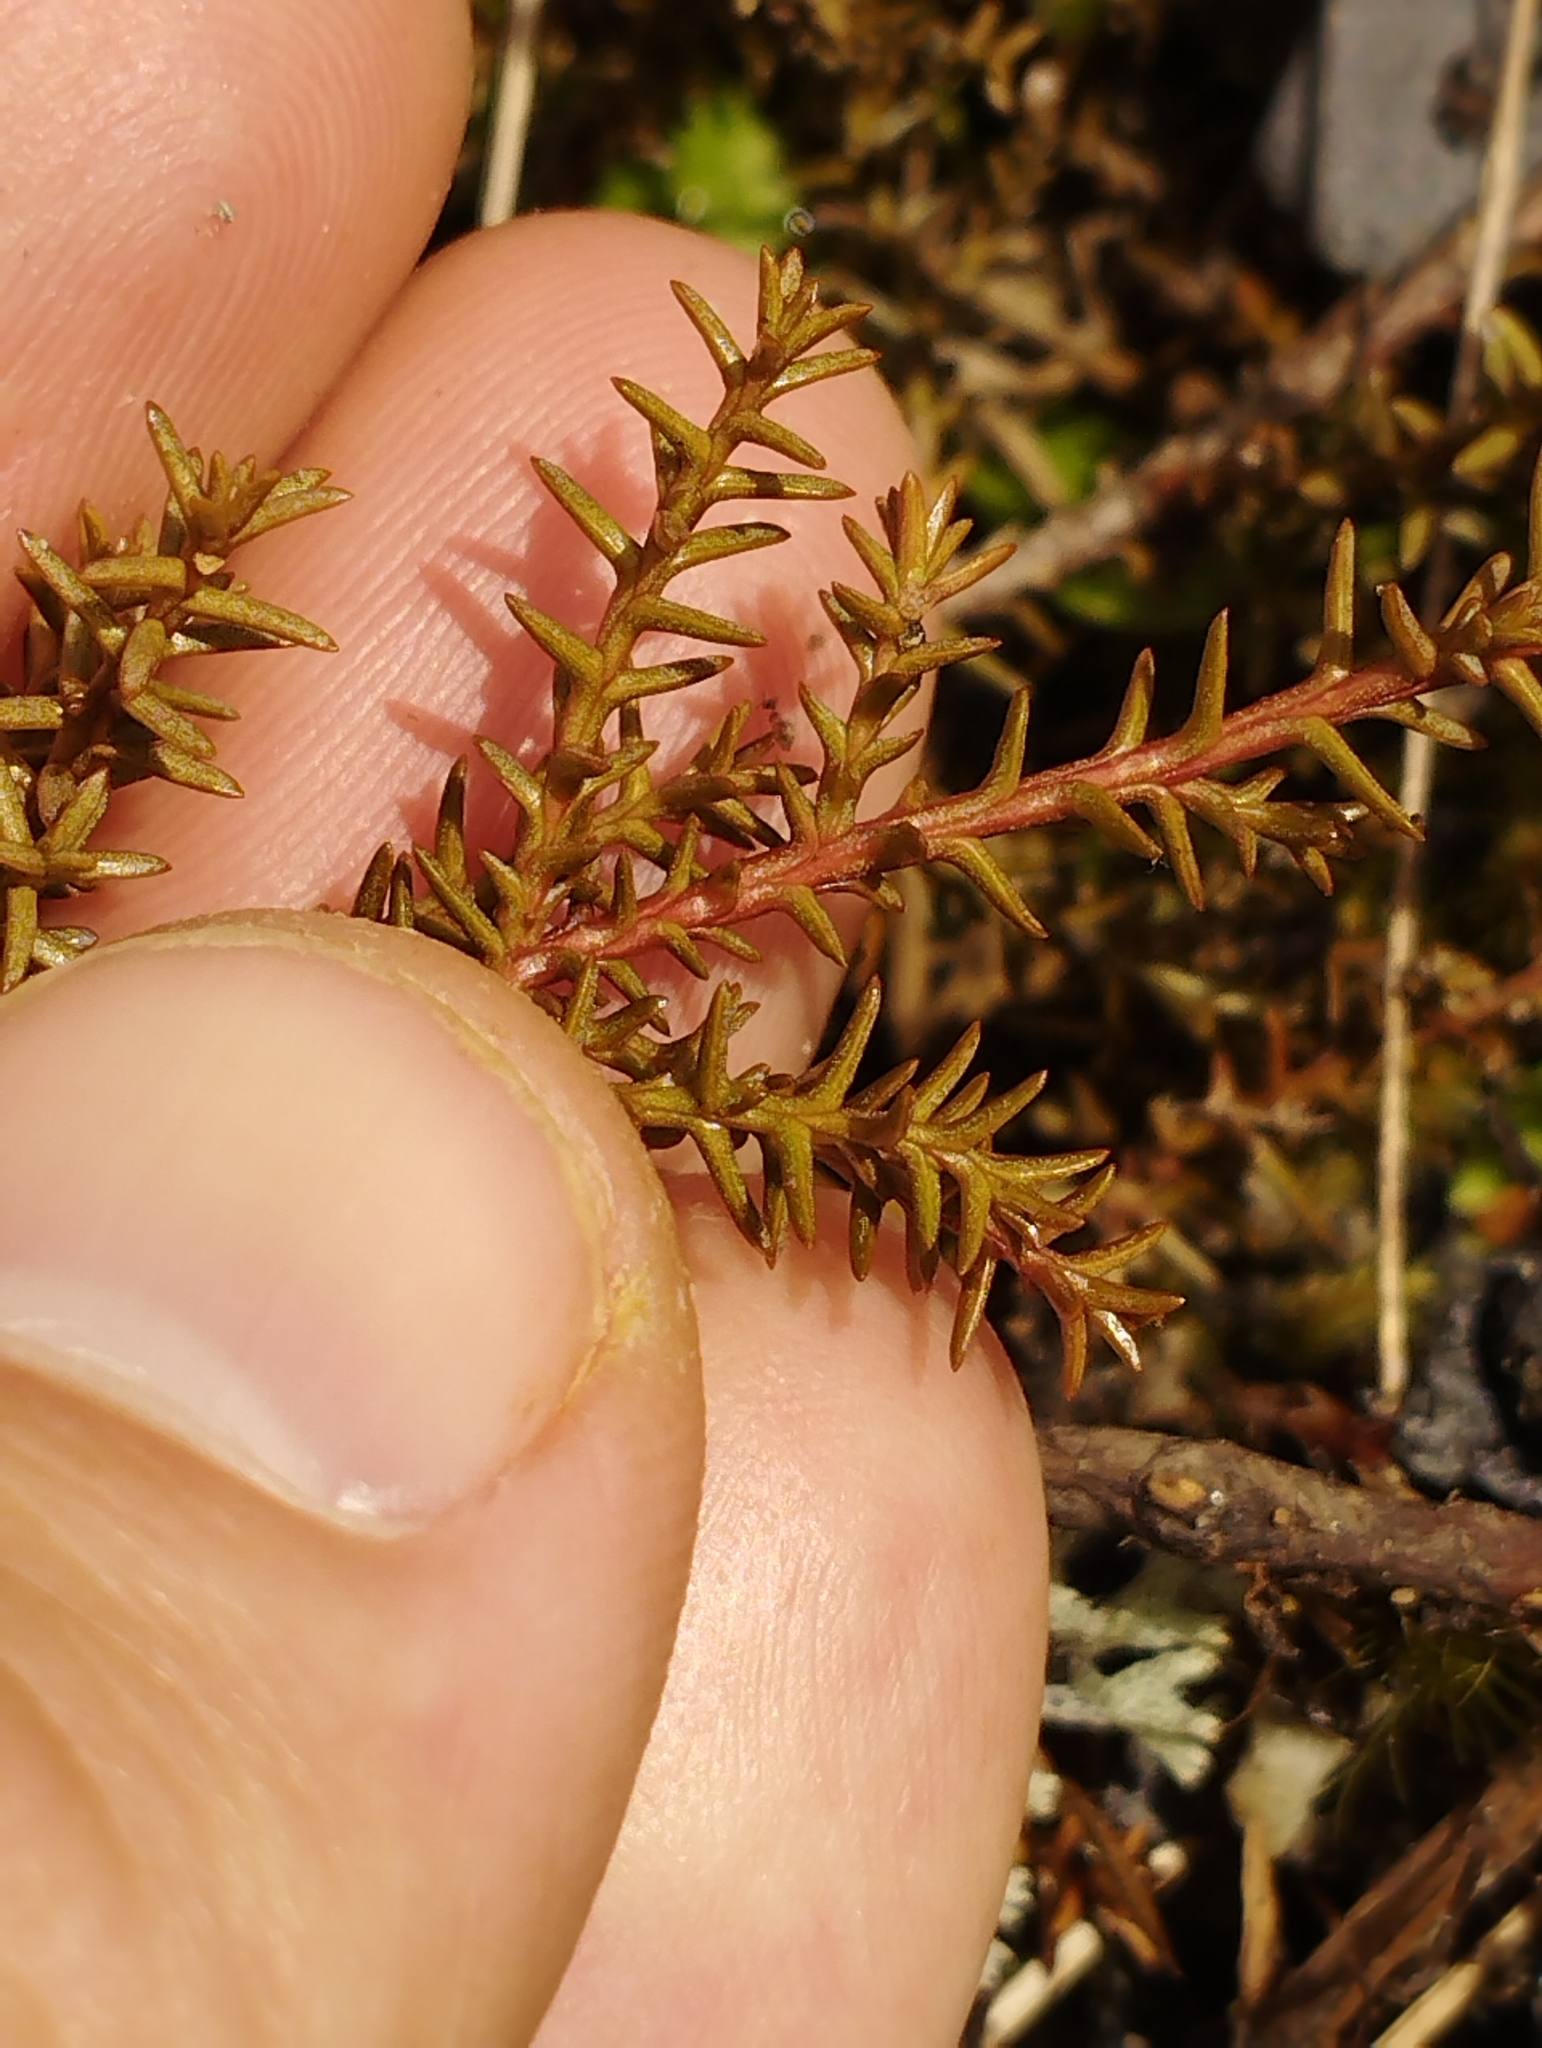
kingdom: Plantae
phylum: Tracheophyta
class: Pinopsida
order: Pinales
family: Podocarpaceae
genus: Lepidothamnus
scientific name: Lepidothamnus laxifolius
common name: Pygmy pine
